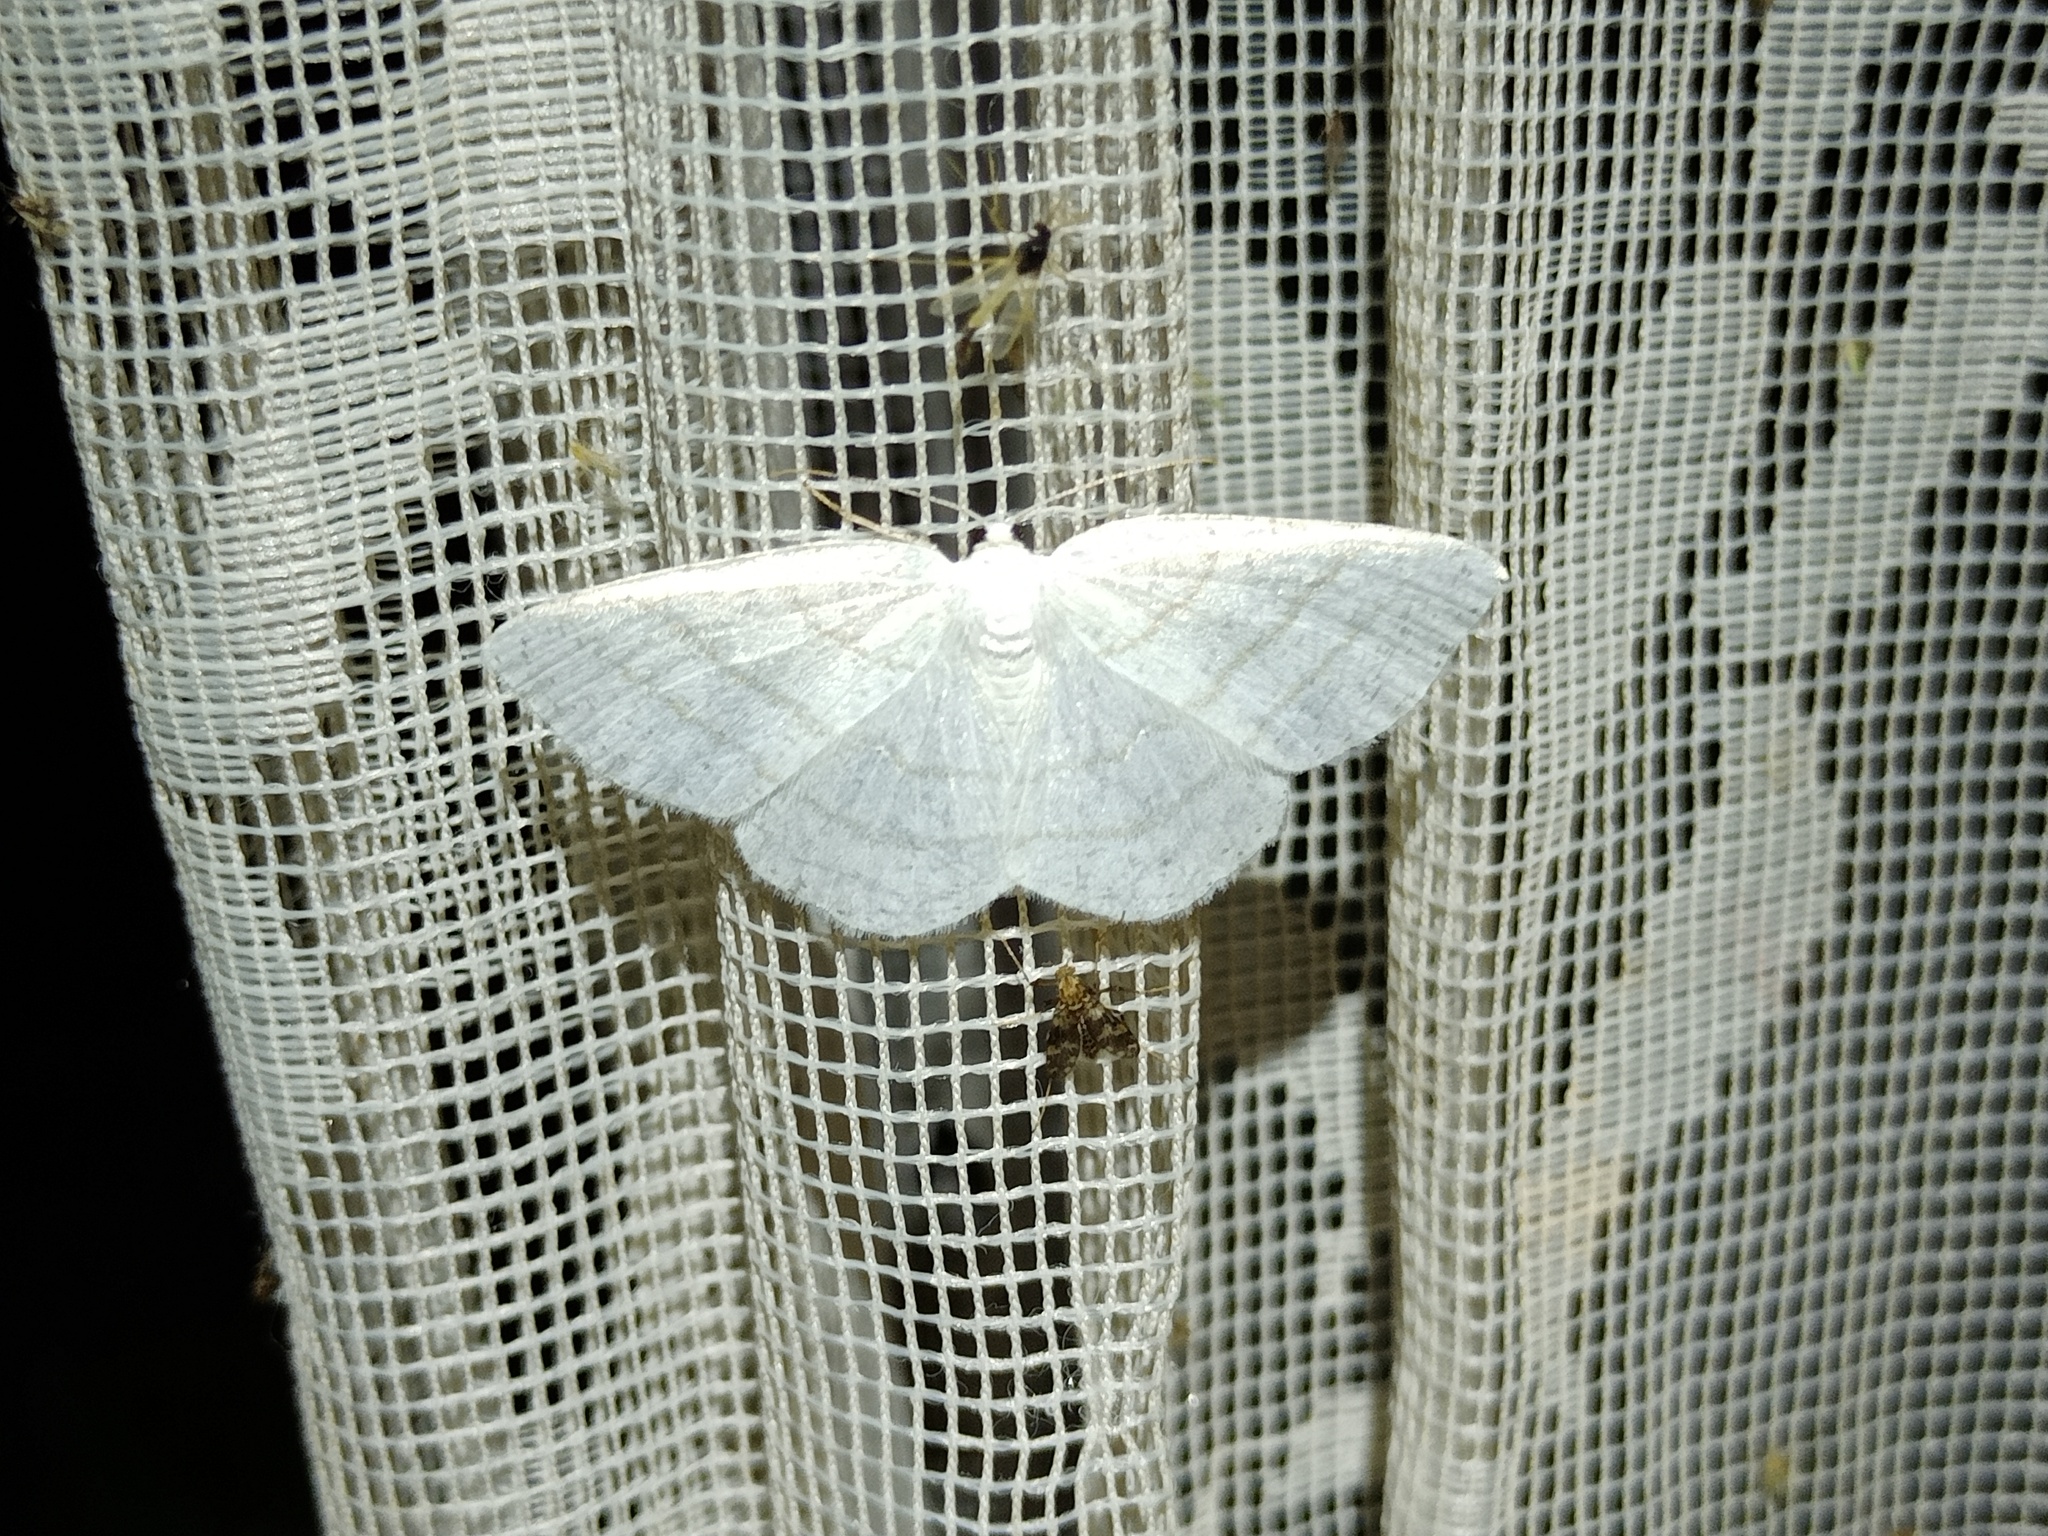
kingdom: Animalia
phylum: Arthropoda
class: Insecta
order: Lepidoptera
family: Geometridae
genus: Cabera
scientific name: Cabera pusaria
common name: Common white wave
